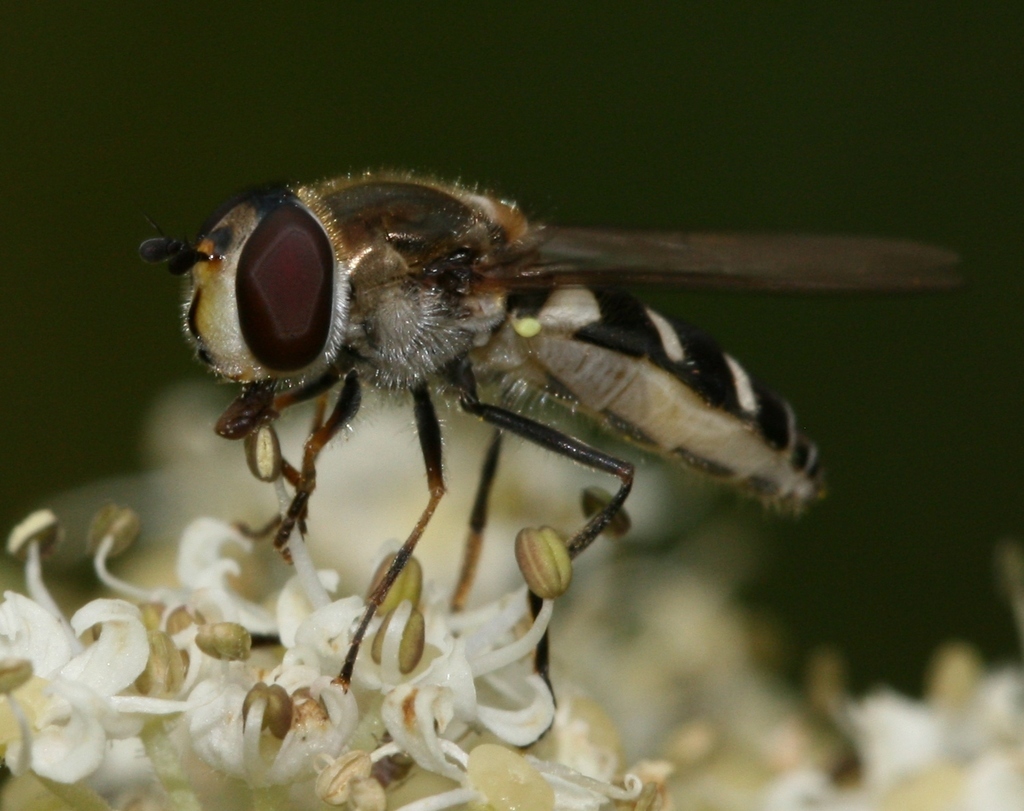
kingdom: Animalia
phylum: Arthropoda
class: Insecta
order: Diptera
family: Syrphidae
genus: Melangyna
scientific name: Melangyna umbellatarum
